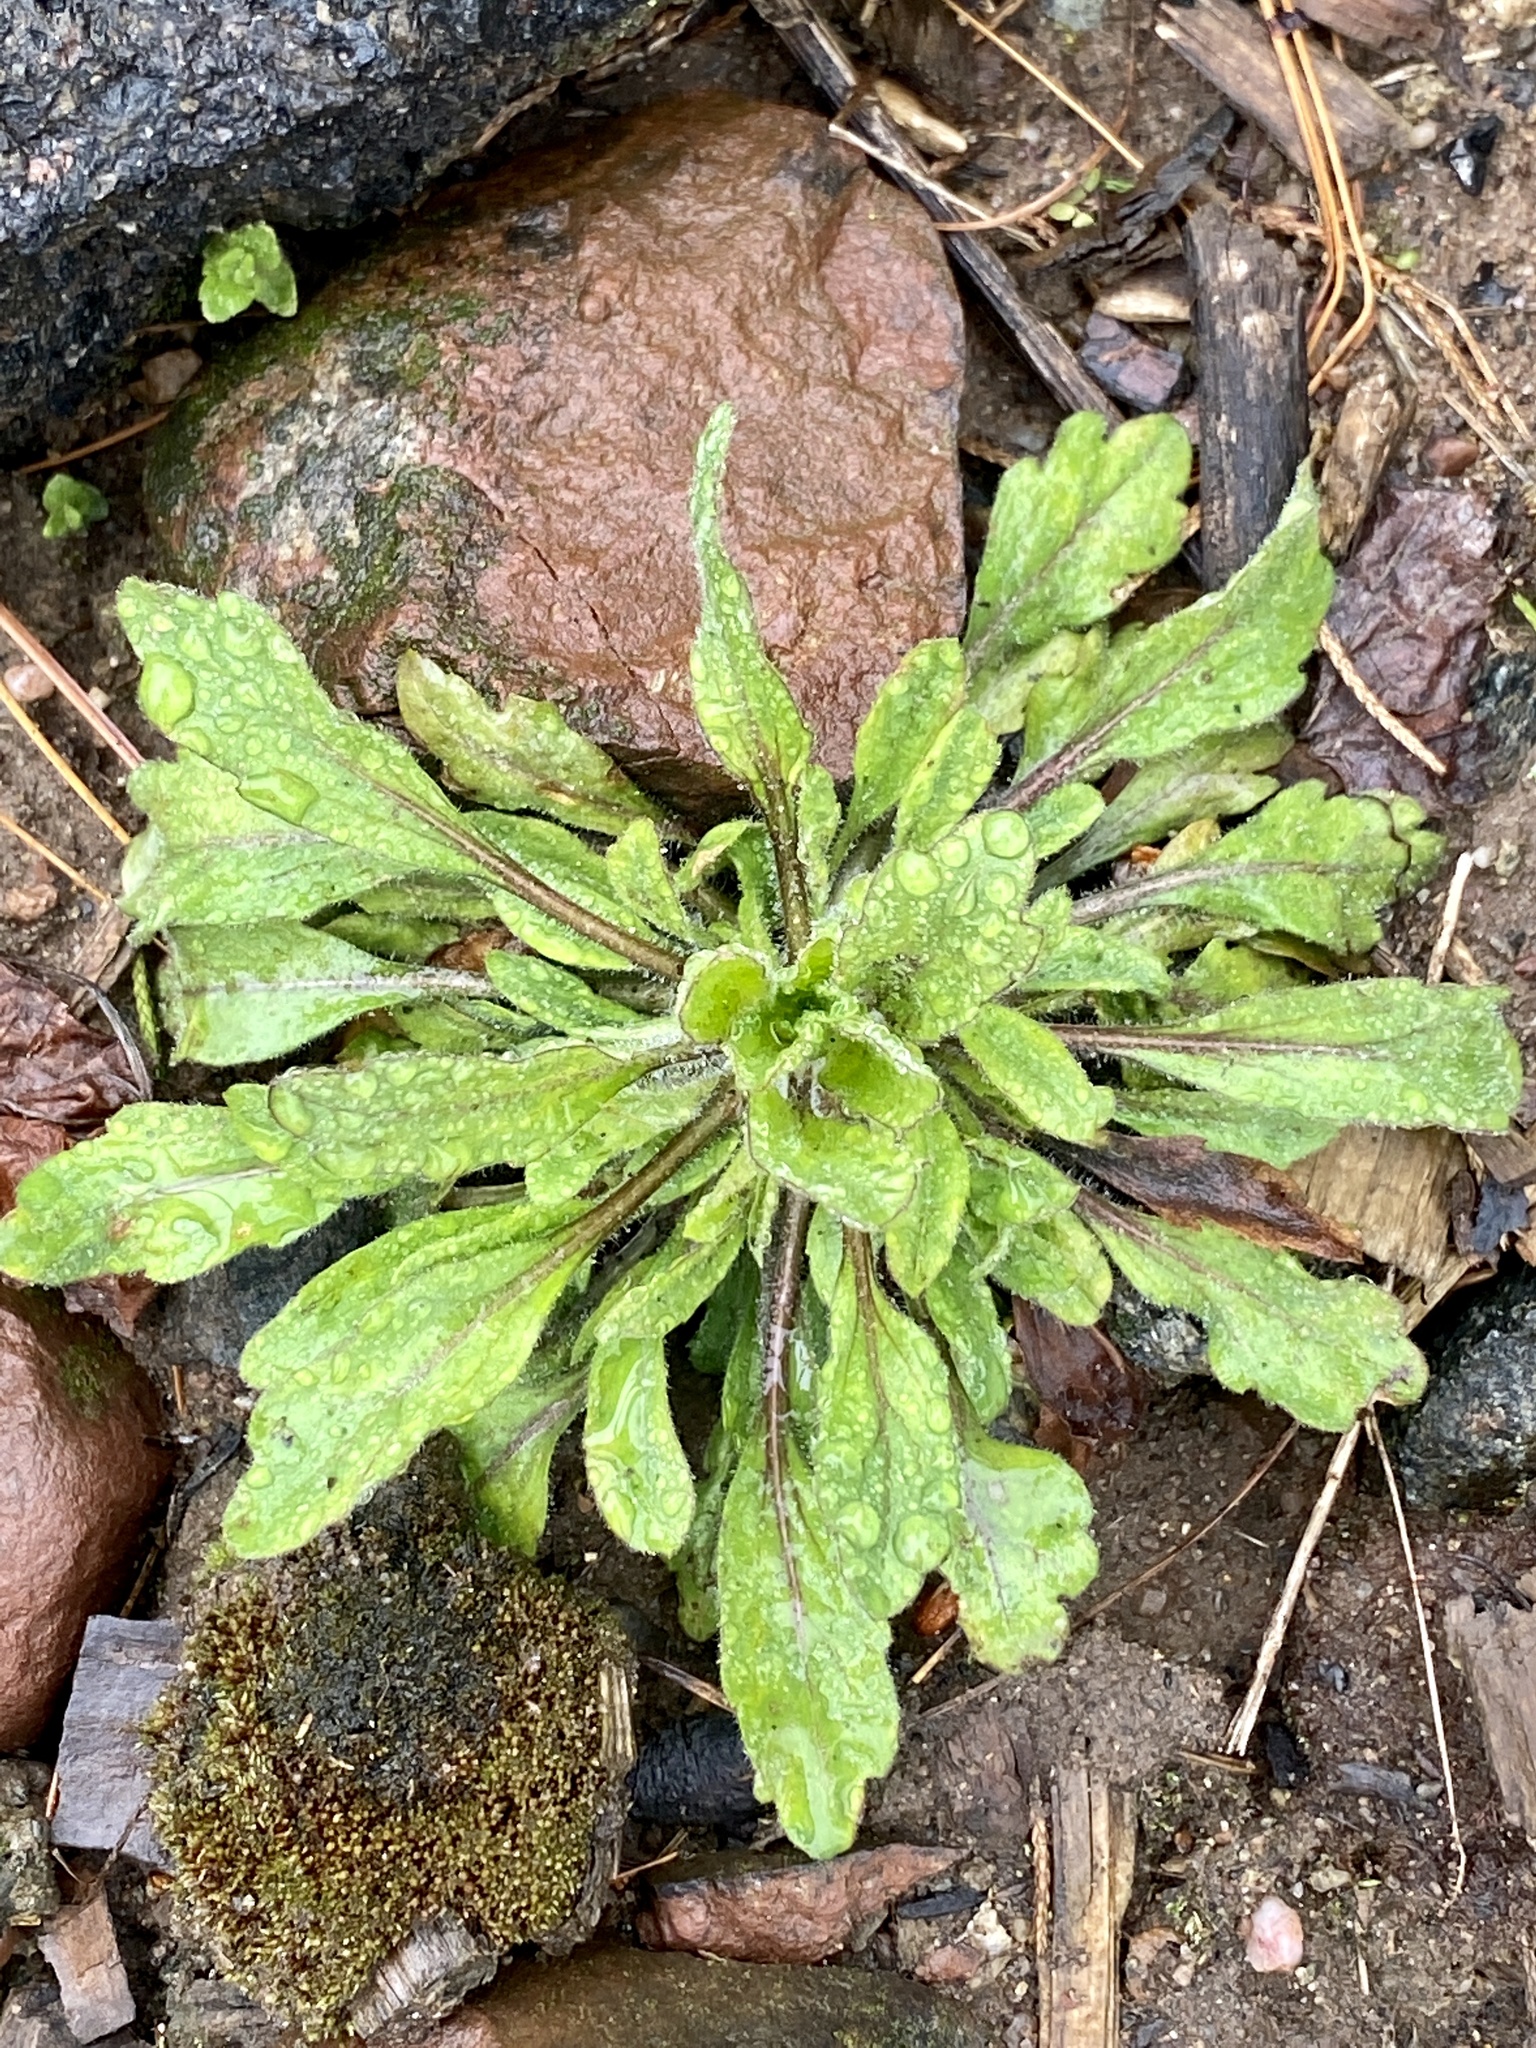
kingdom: Plantae
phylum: Tracheophyta
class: Magnoliopsida
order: Asterales
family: Asteraceae
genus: Erigeron
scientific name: Erigeron canadensis
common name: Canadian fleabane
